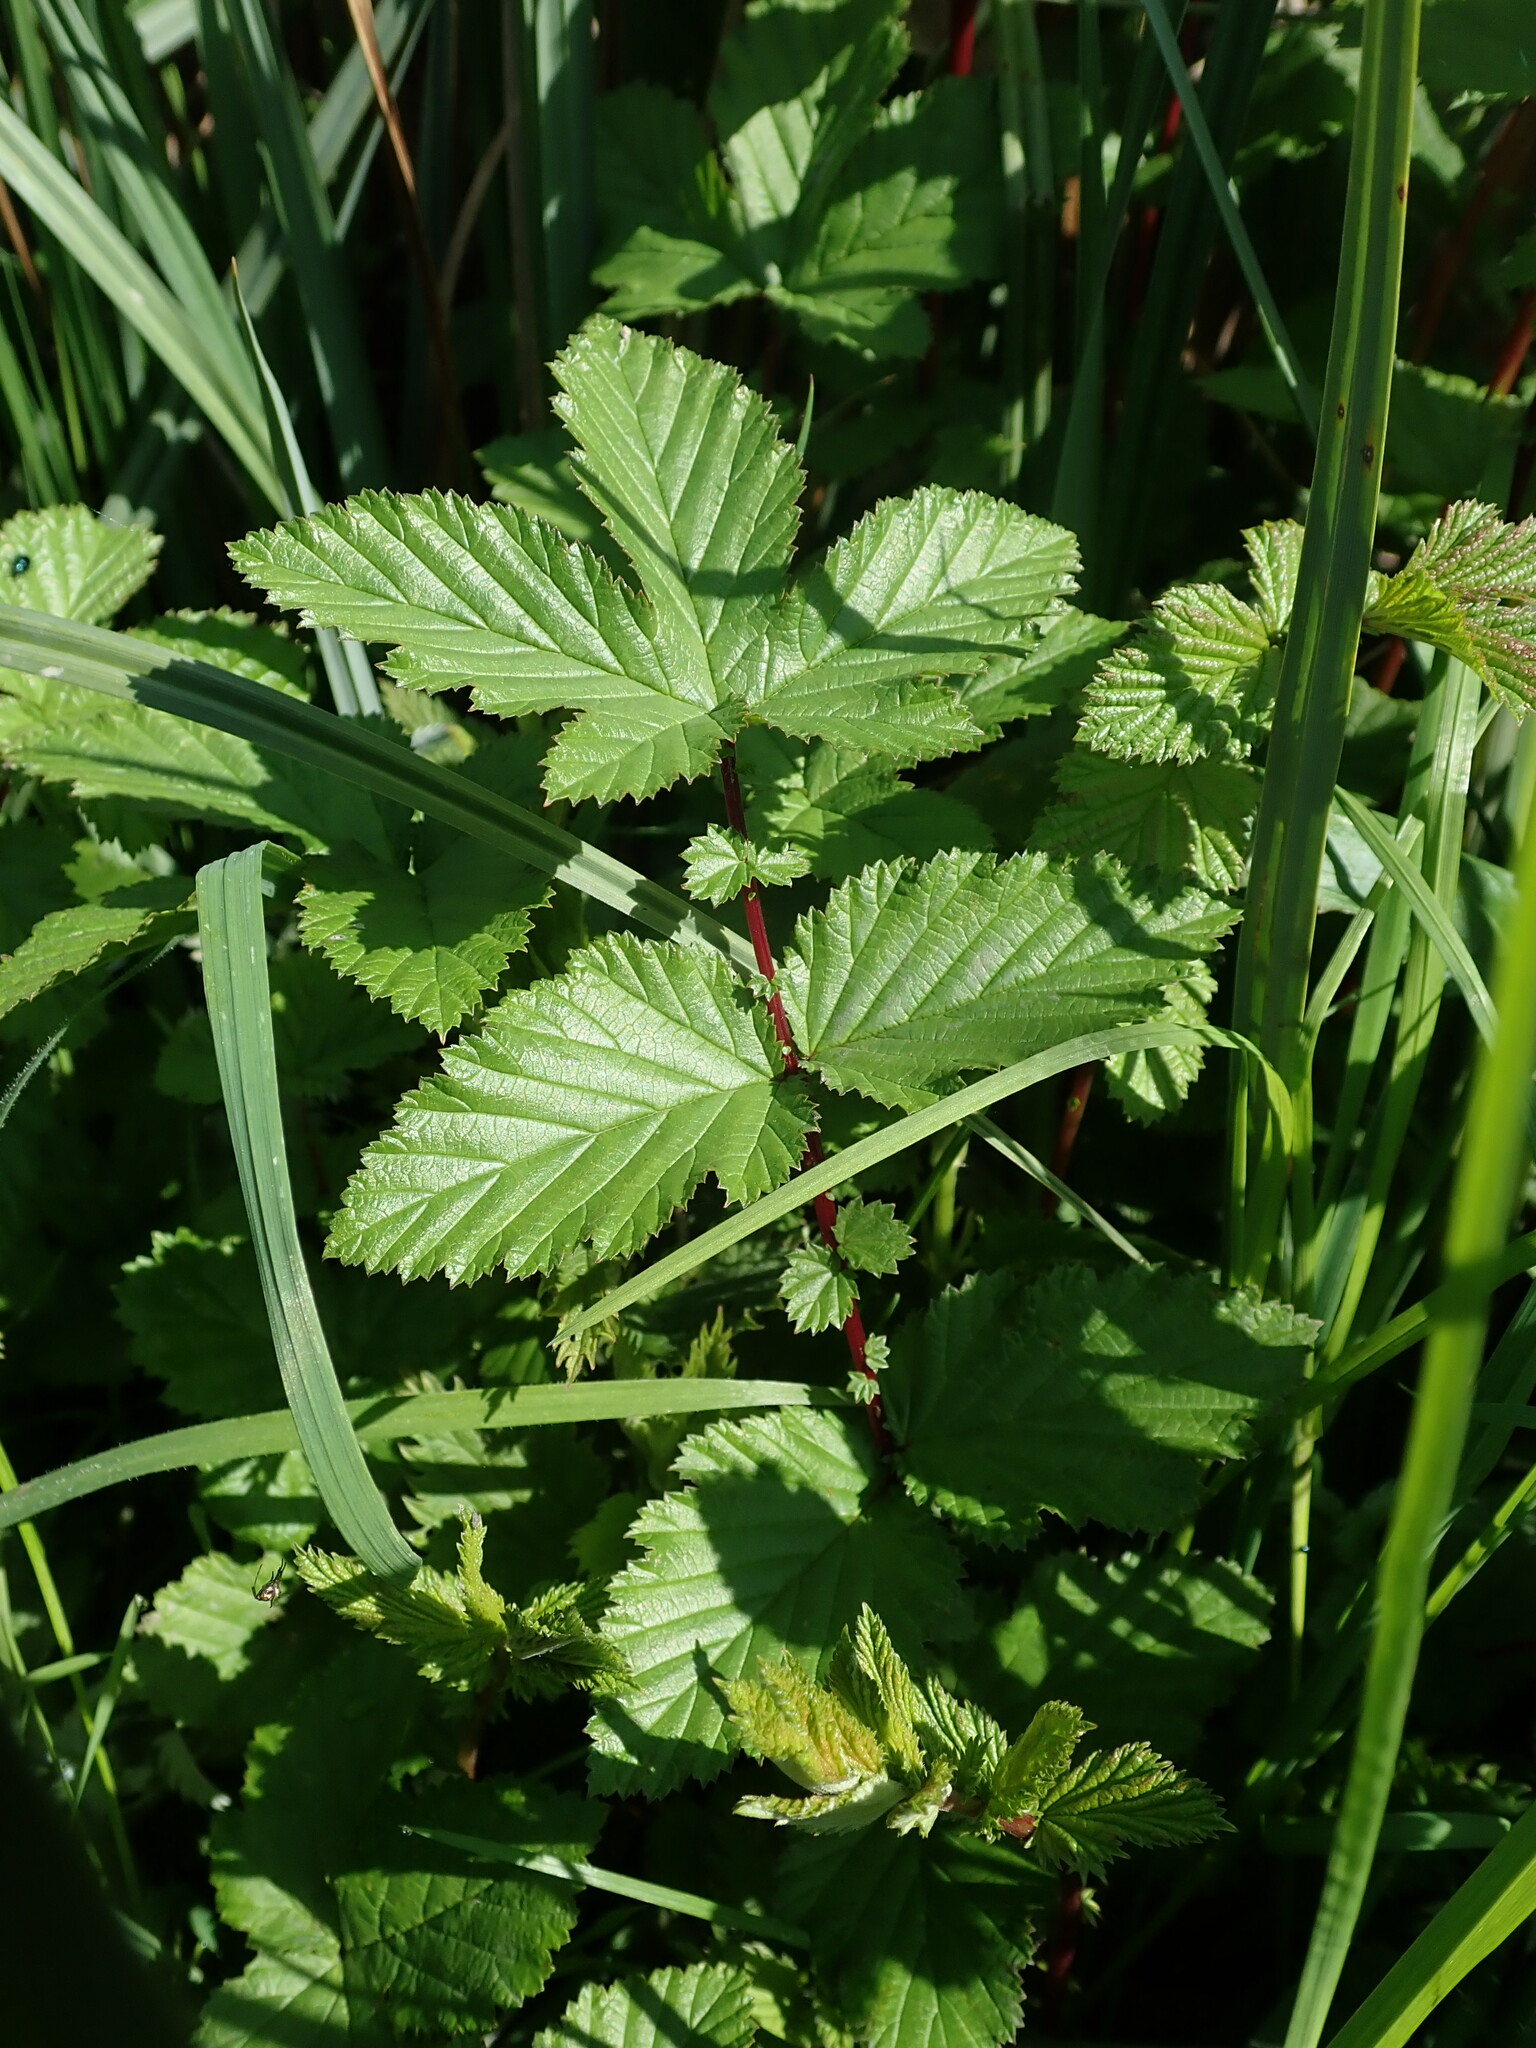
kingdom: Plantae
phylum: Tracheophyta
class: Magnoliopsida
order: Rosales
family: Rosaceae
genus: Filipendula
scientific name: Filipendula ulmaria
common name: Meadowsweet
